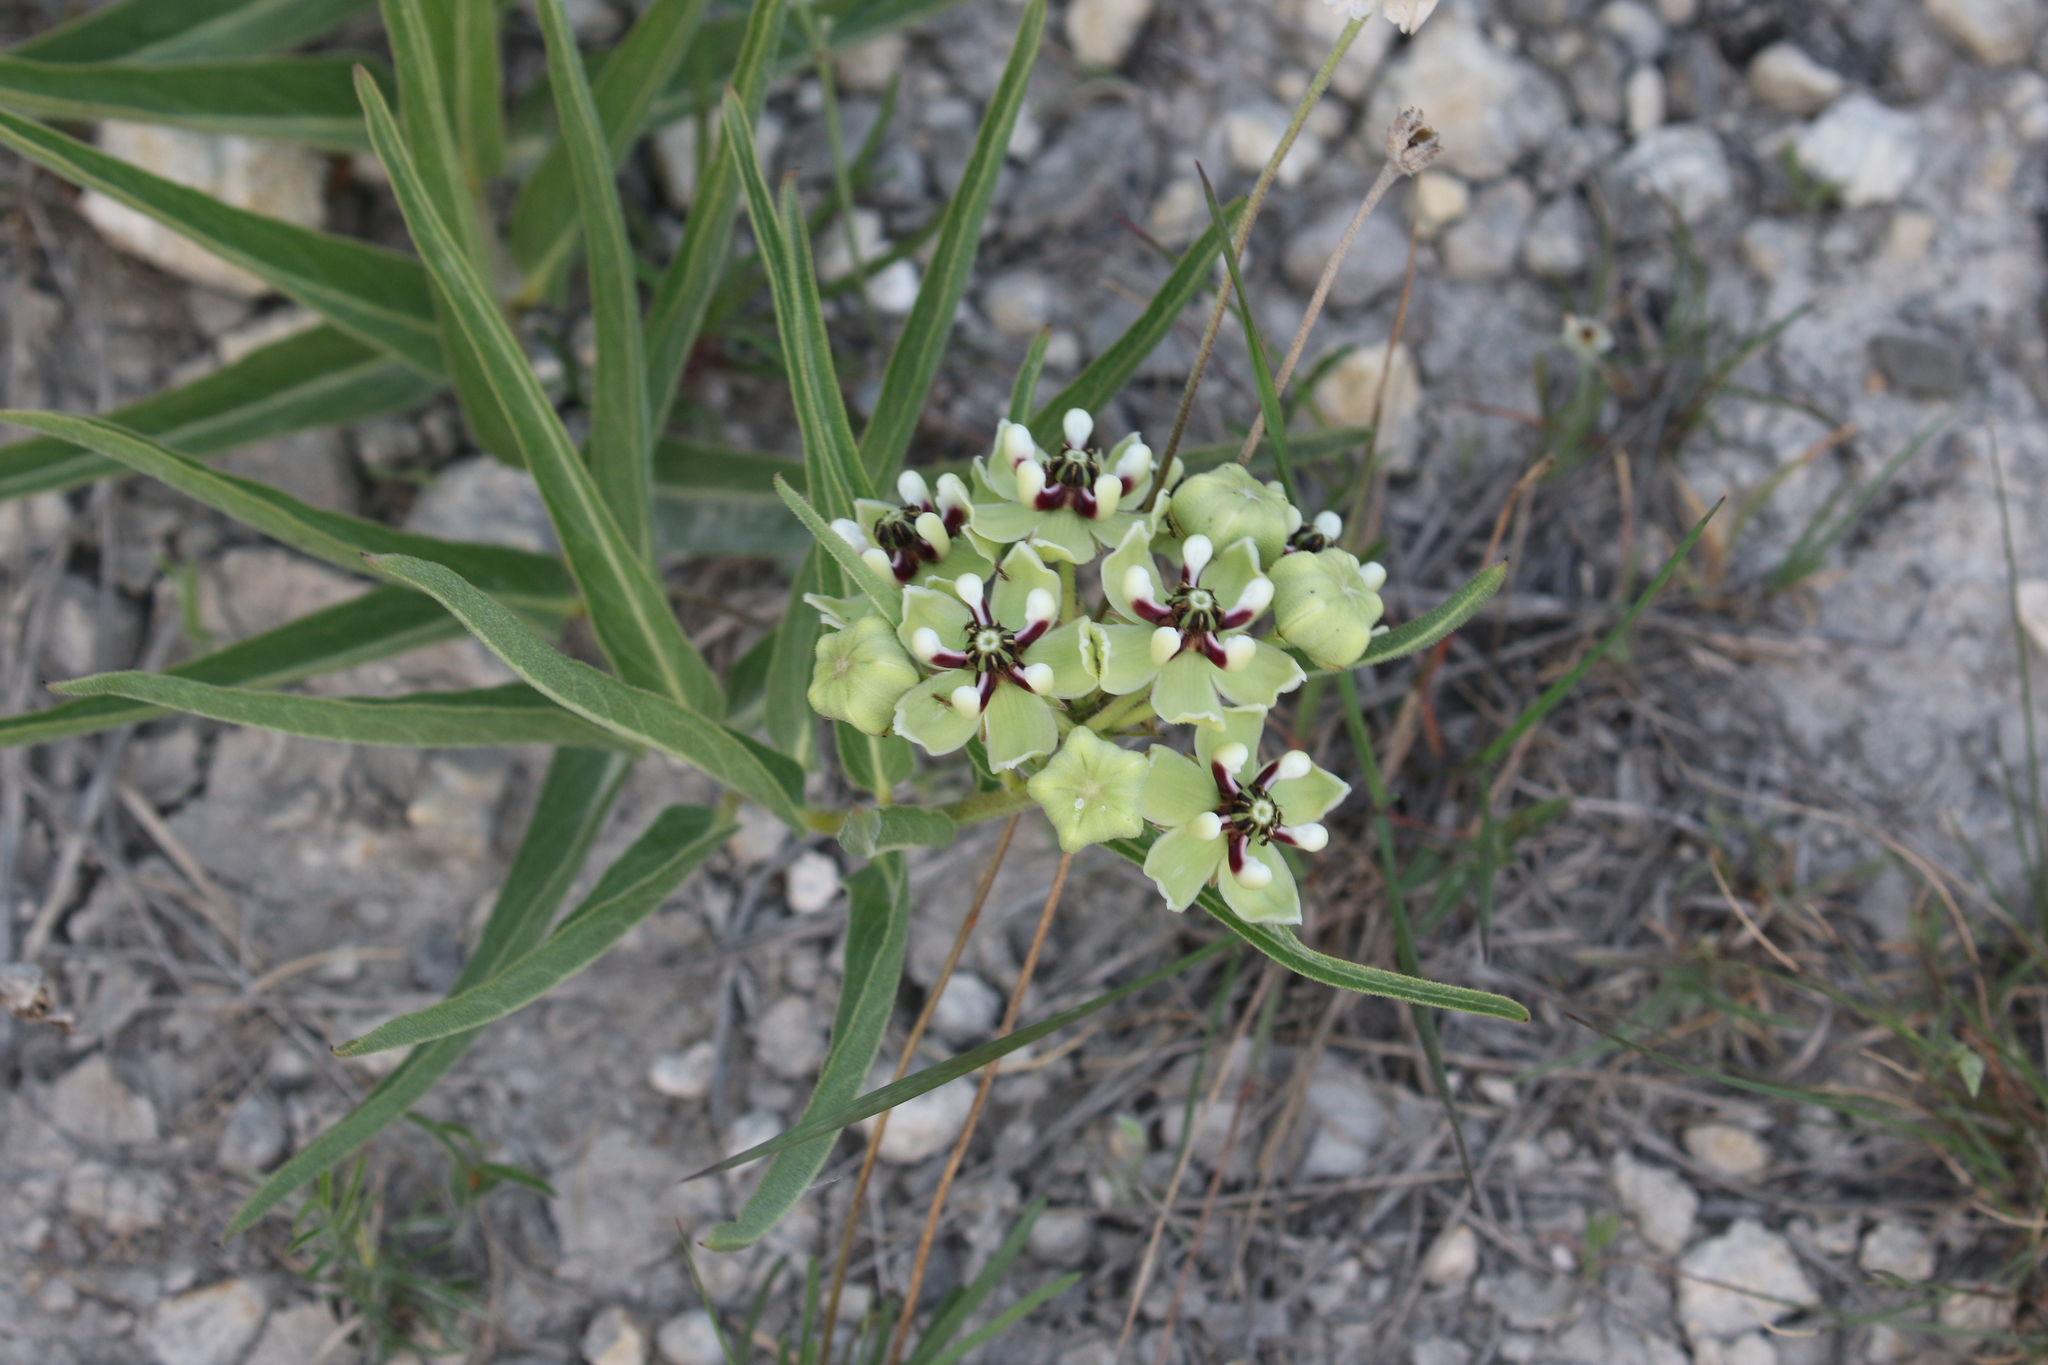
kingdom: Plantae
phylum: Tracheophyta
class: Magnoliopsida
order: Gentianales
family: Apocynaceae
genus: Asclepias
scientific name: Asclepias asperula
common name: Antelope horns
